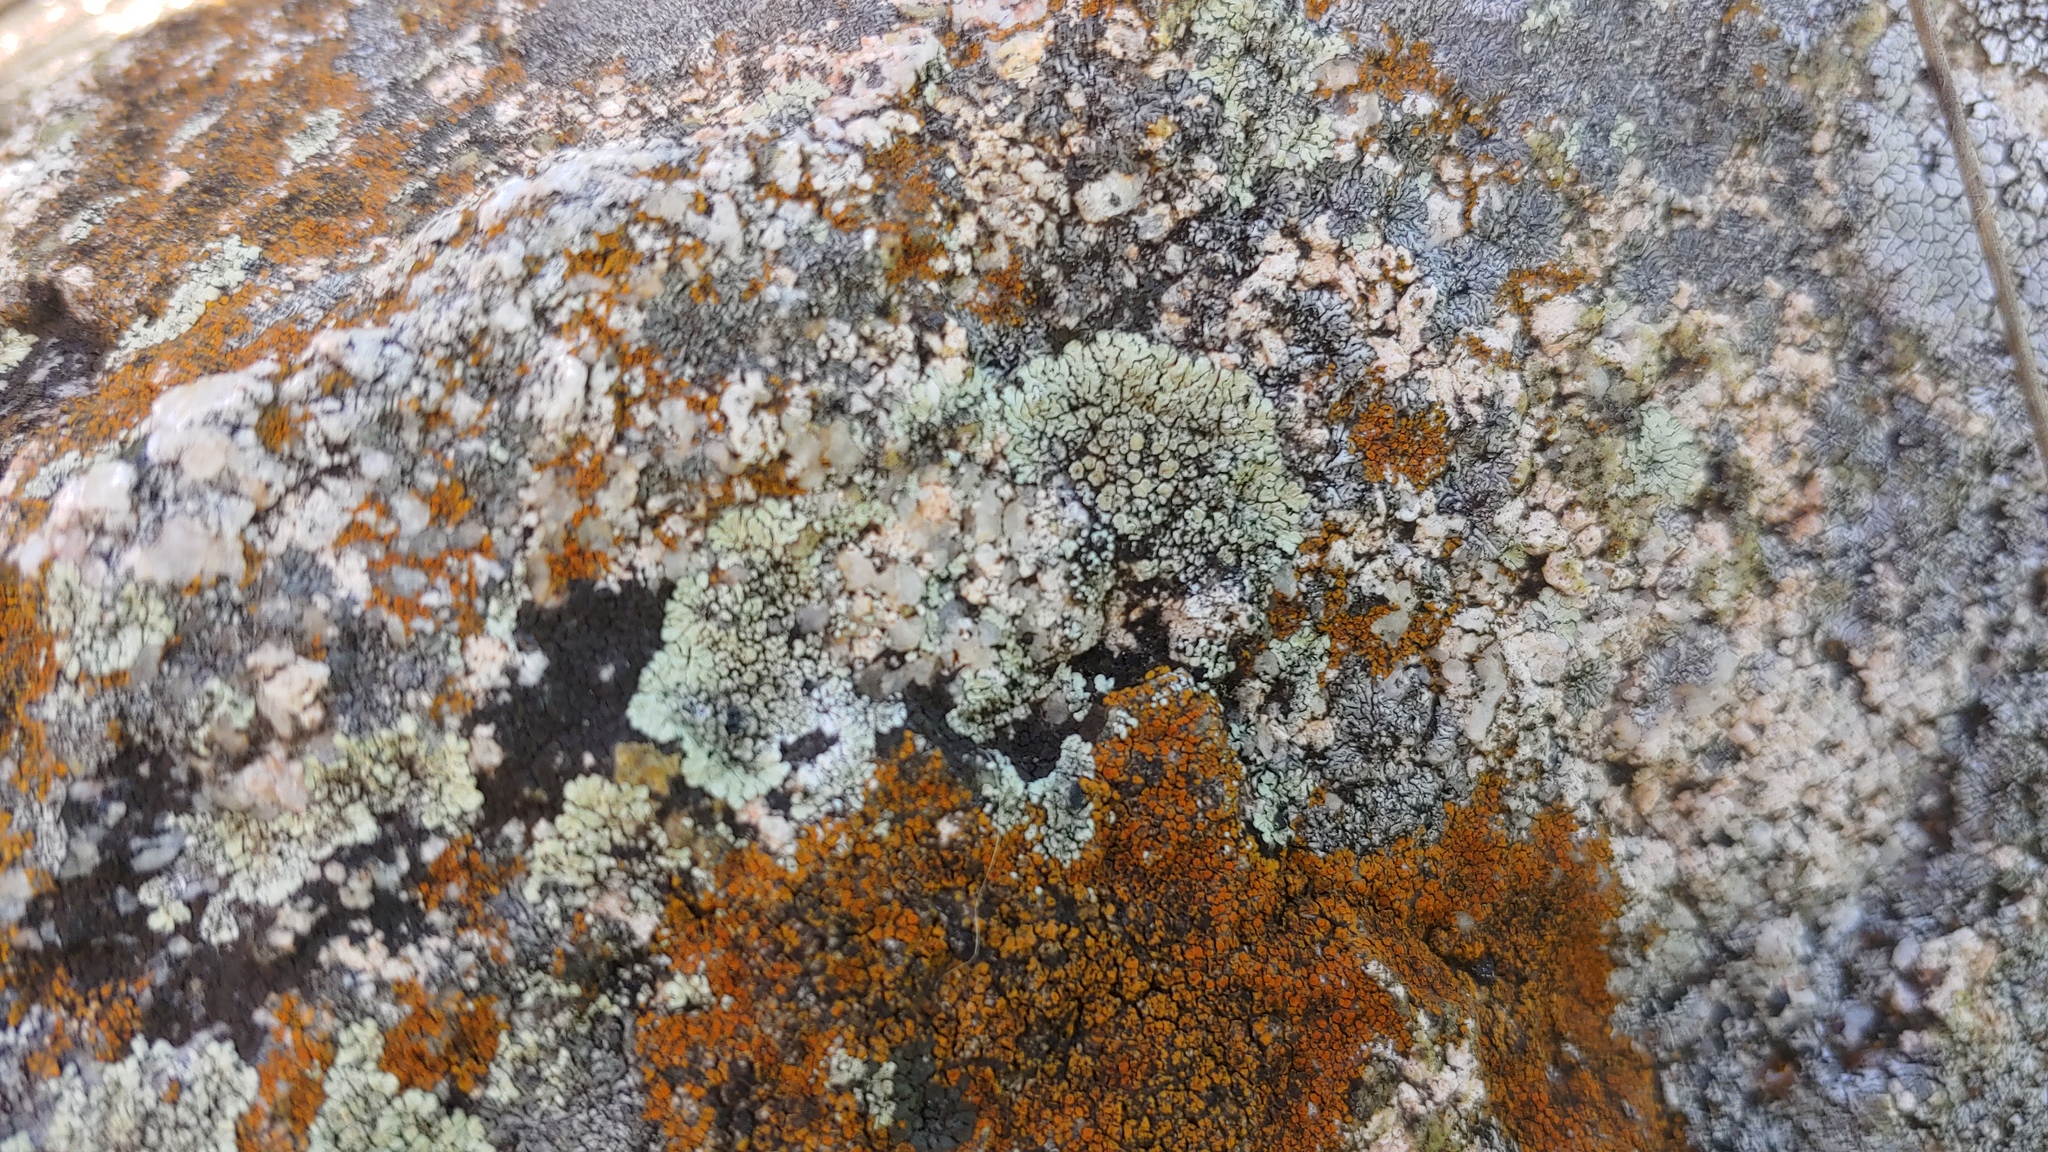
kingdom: Fungi
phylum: Ascomycota
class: Lecanoromycetes
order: Lecanorales
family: Lecanoraceae
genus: Protoparmeliopsis
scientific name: Protoparmeliopsis muralis
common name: Stonewall rim lichen
